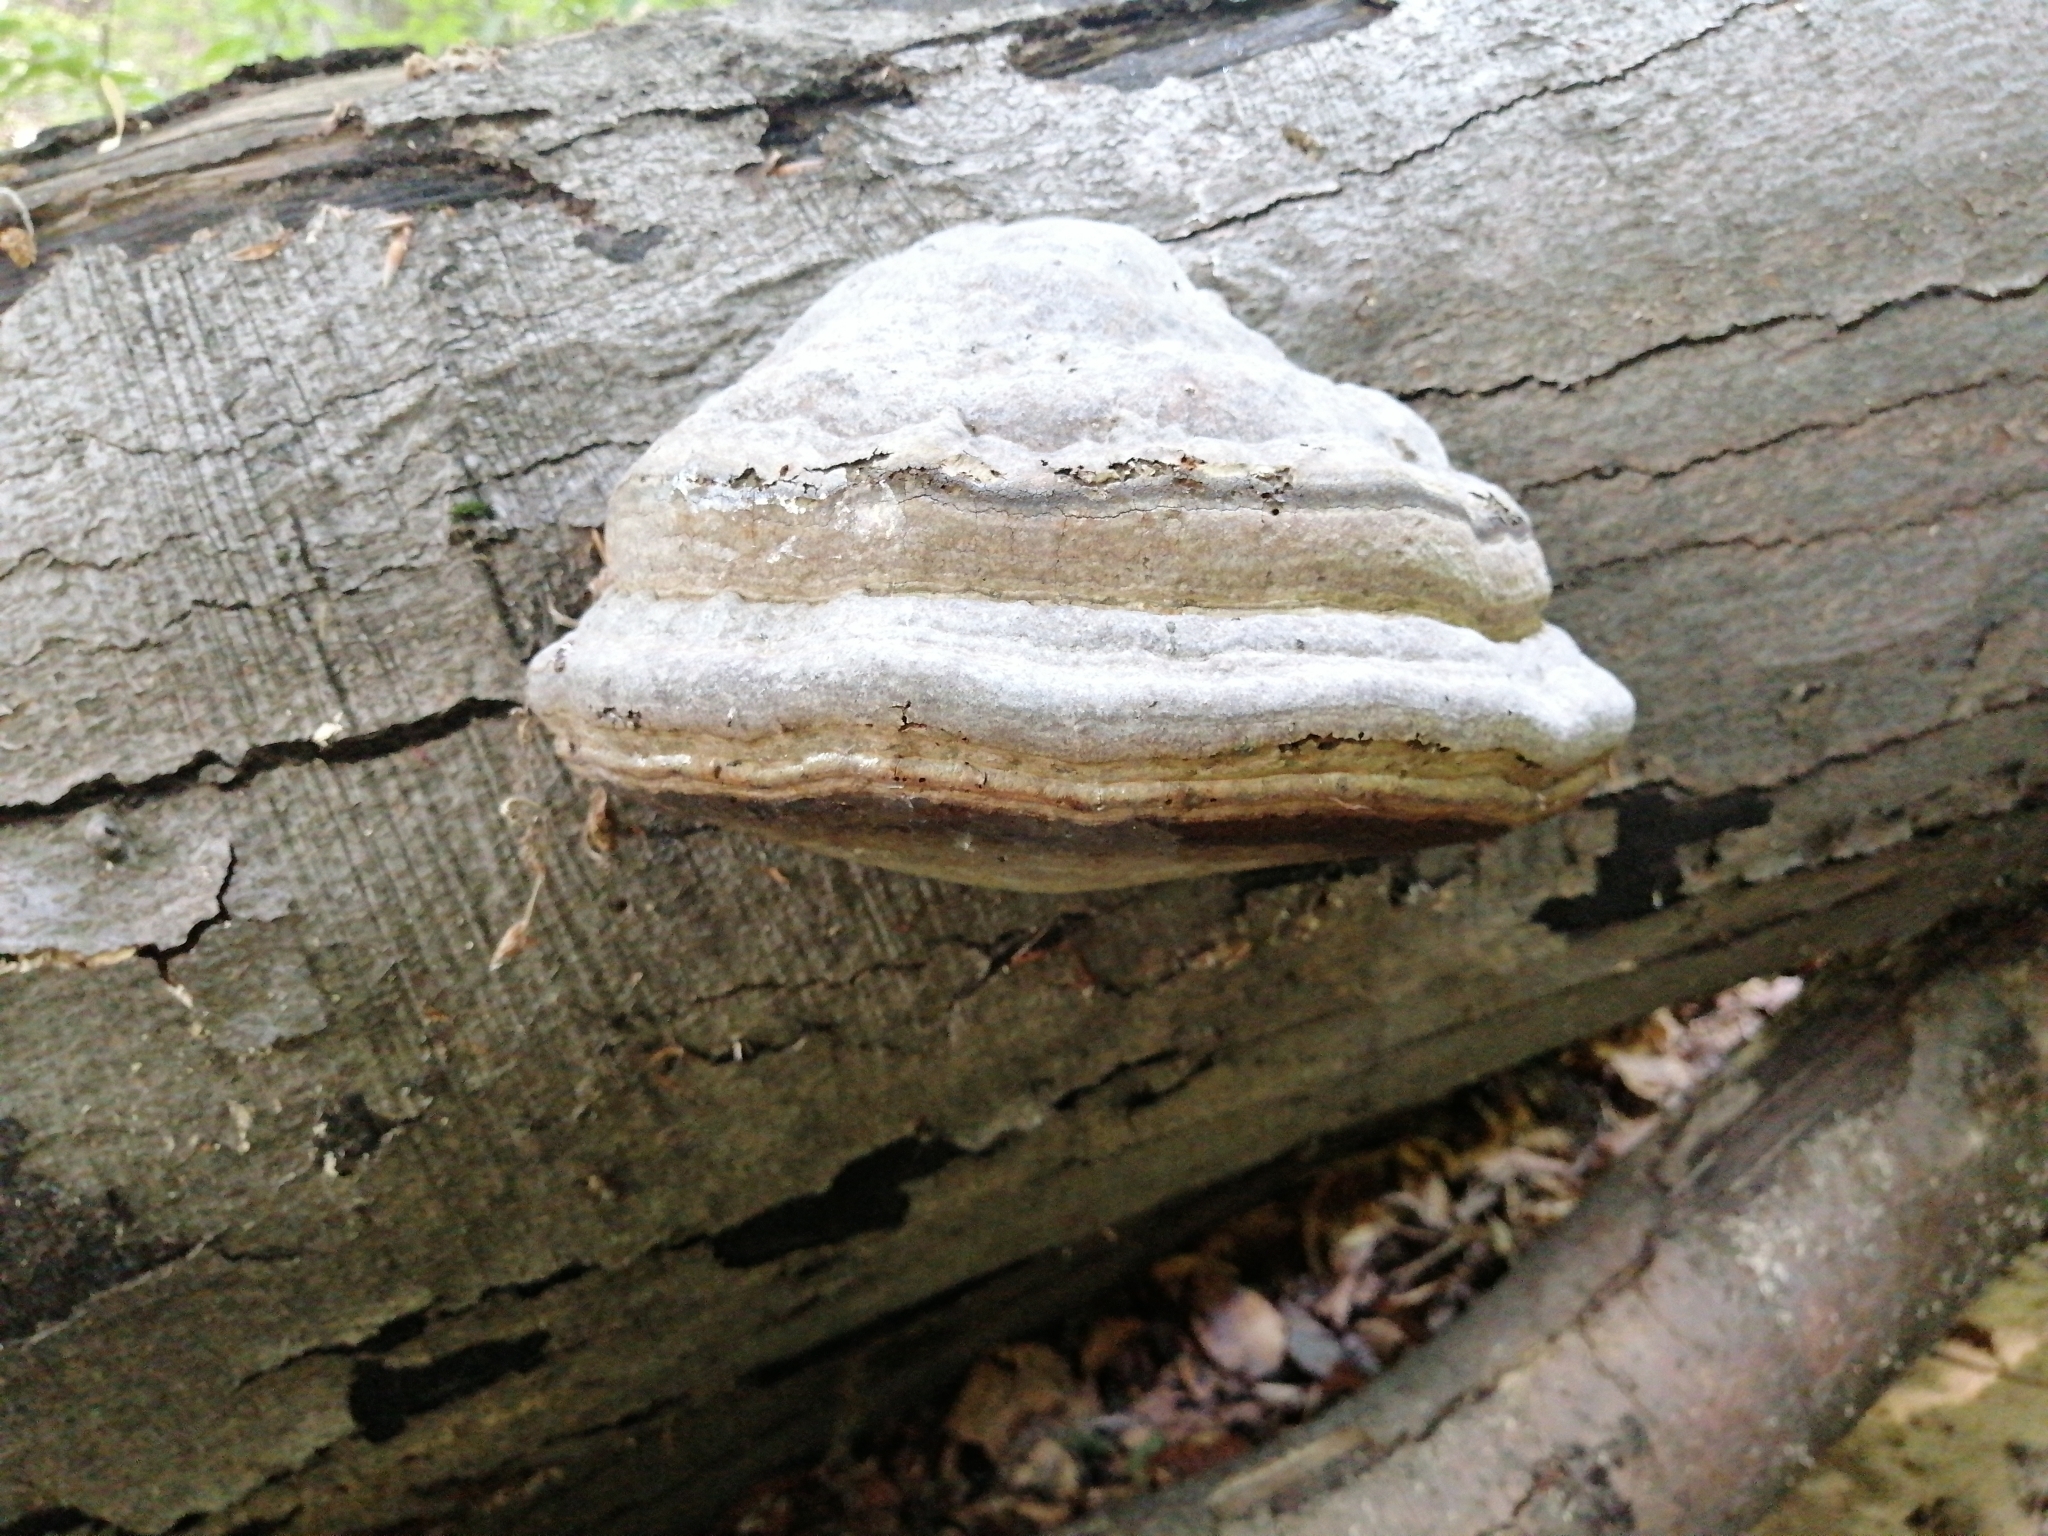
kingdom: Fungi
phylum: Basidiomycota
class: Agaricomycetes
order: Polyporales
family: Polyporaceae
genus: Fomes
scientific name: Fomes fomentarius
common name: Hoof fungus
